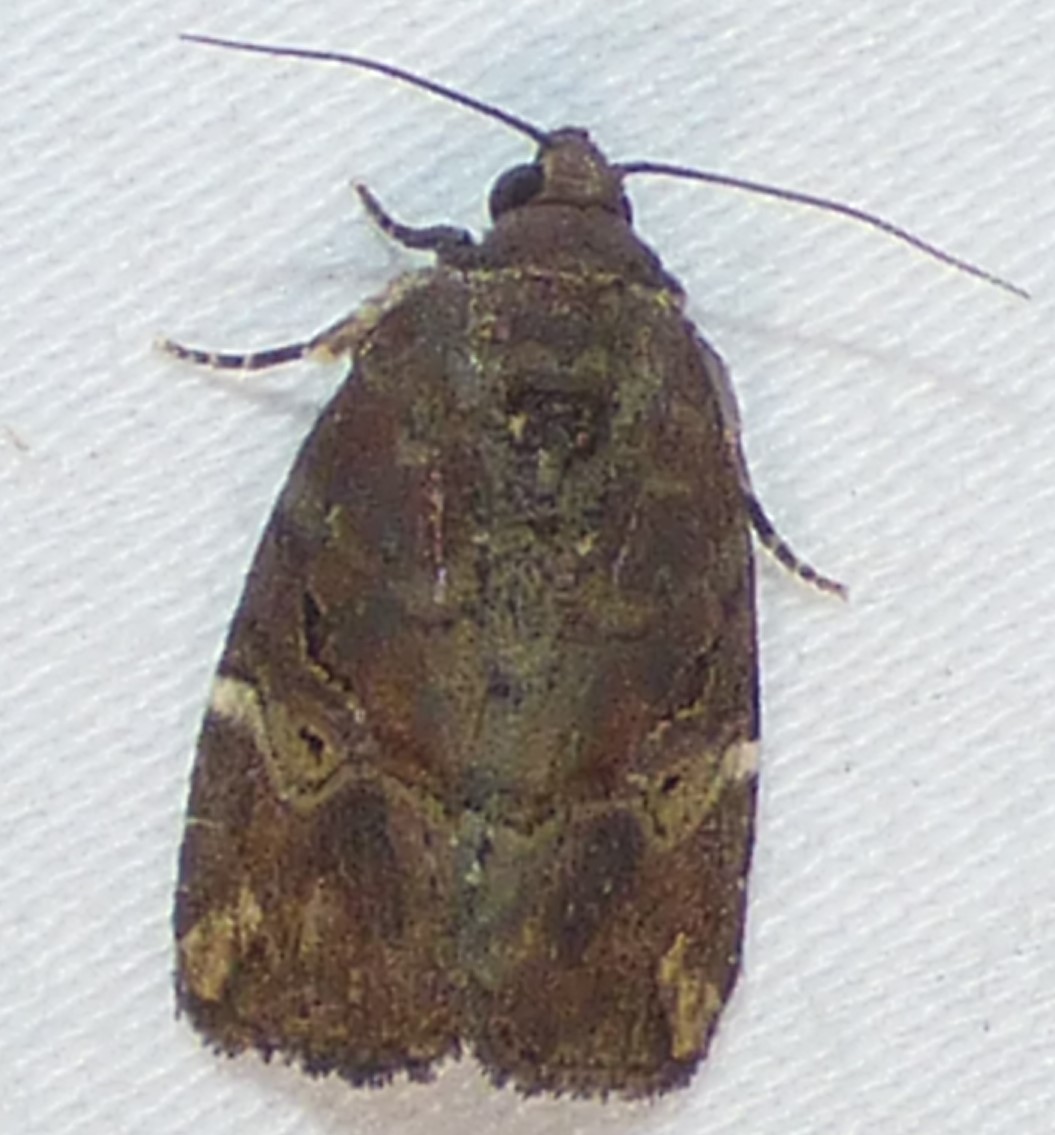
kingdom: Animalia
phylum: Arthropoda
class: Insecta
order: Lepidoptera
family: Noctuidae
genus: Elaphria
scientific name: Elaphria versicolor
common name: Fir harlequin
